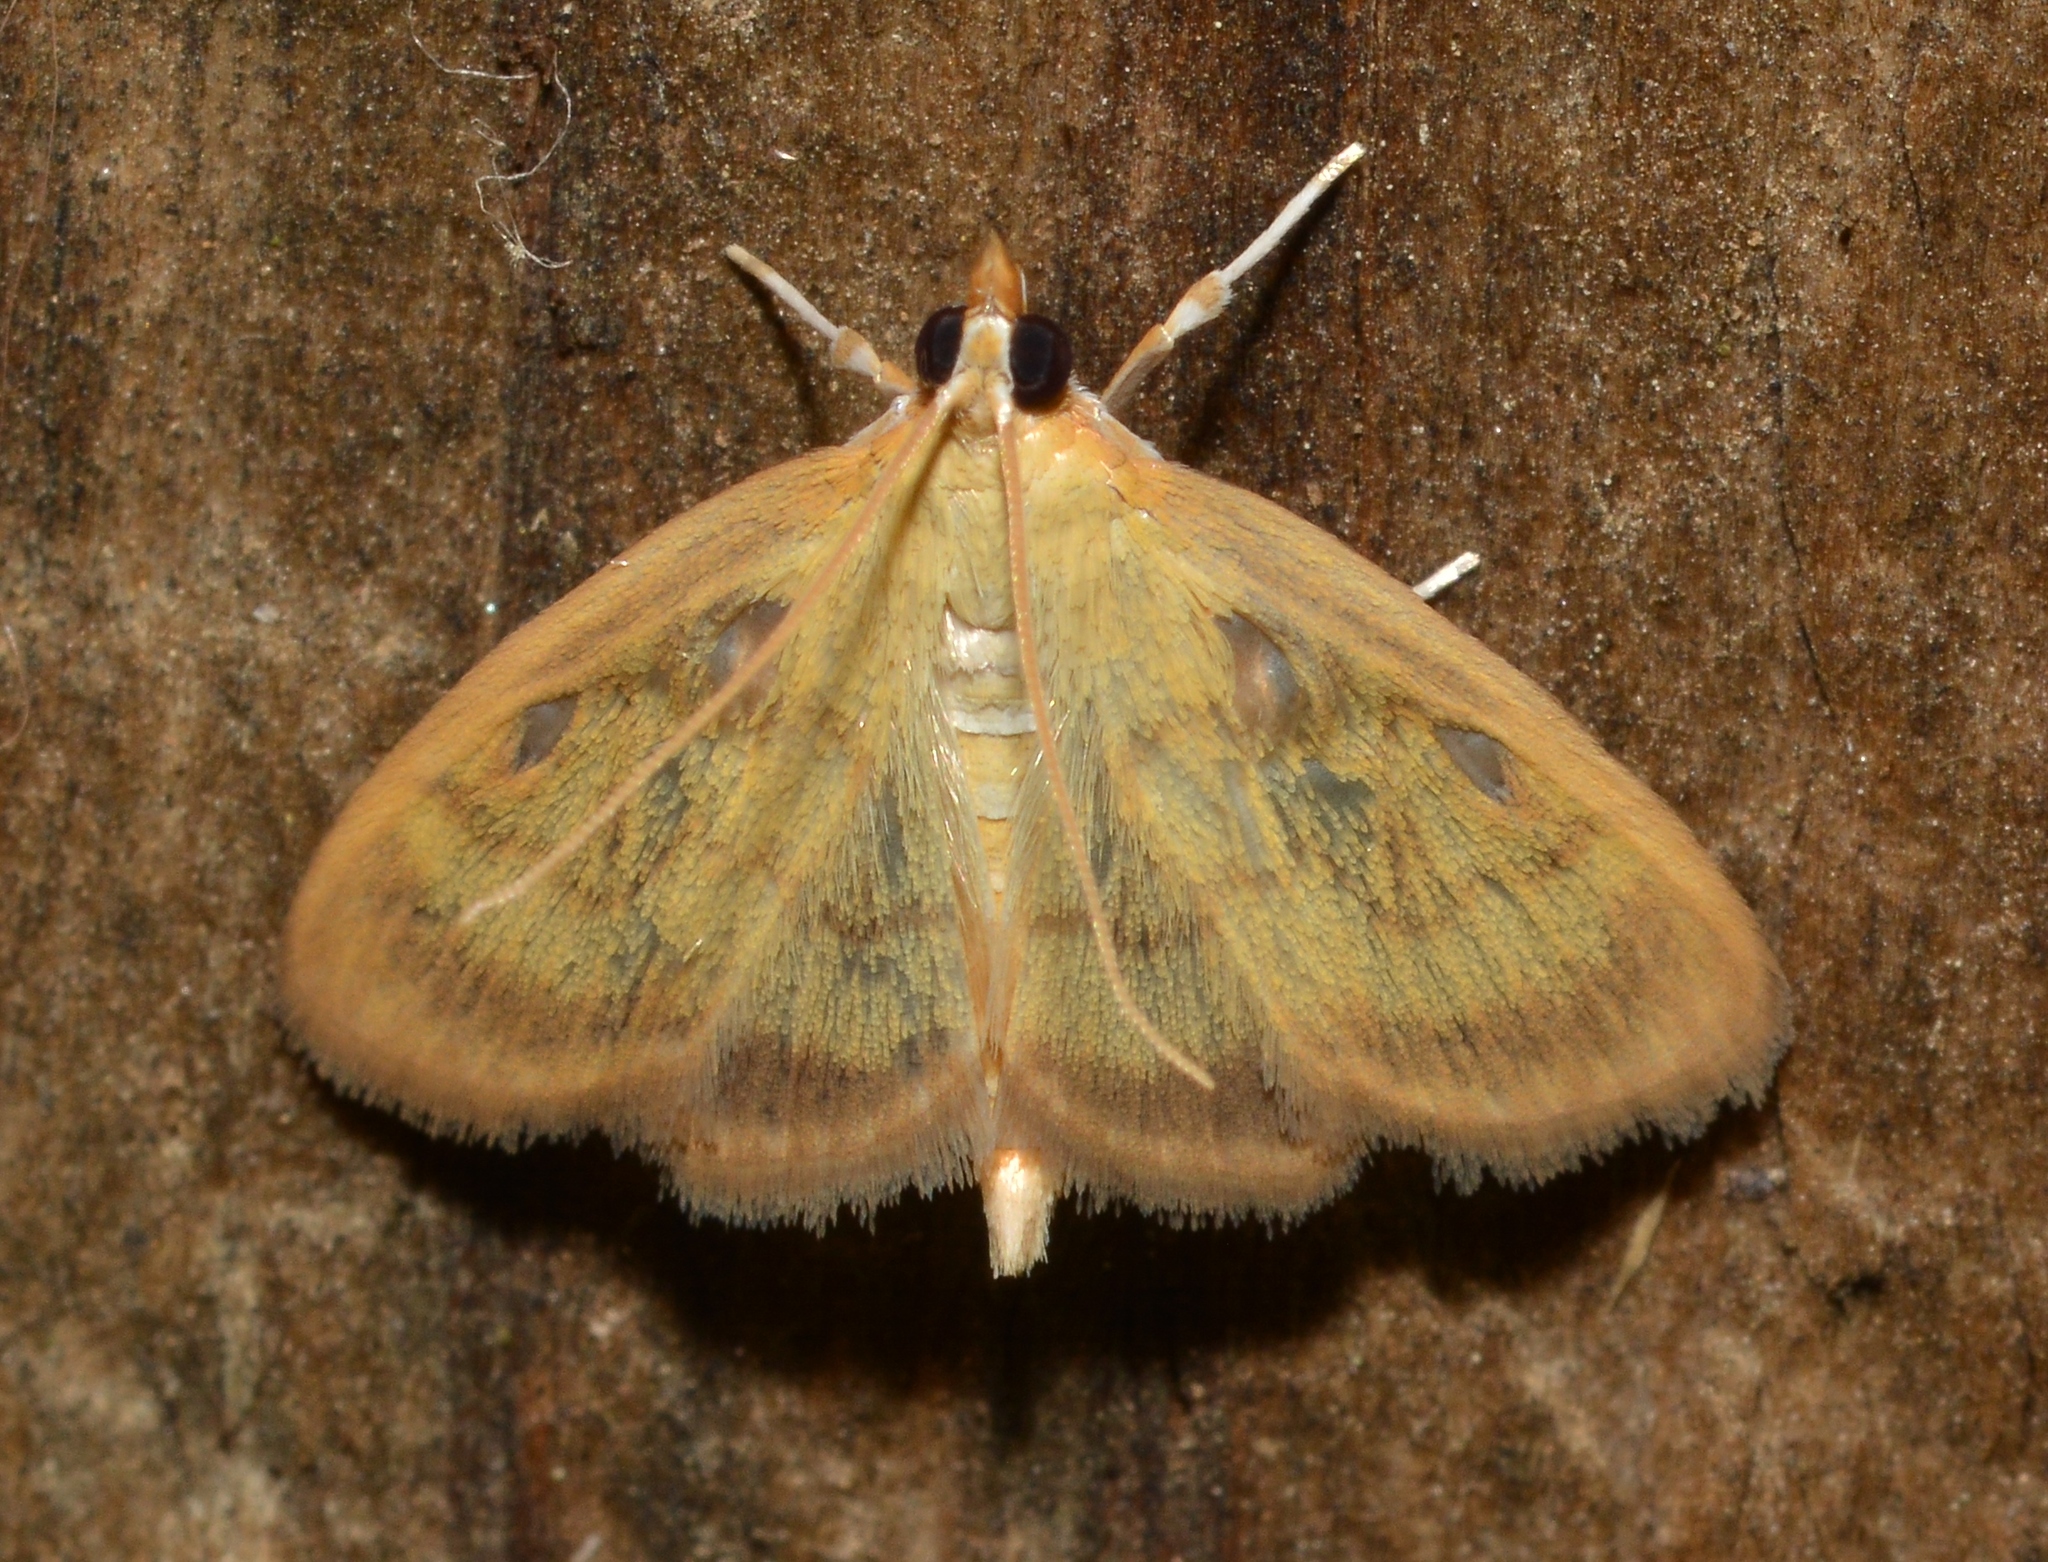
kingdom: Animalia
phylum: Arthropoda
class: Insecta
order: Lepidoptera
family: Crambidae
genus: Crocidophora
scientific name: Crocidophora tuberculalis
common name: Pale-winged crocidiphora moth
